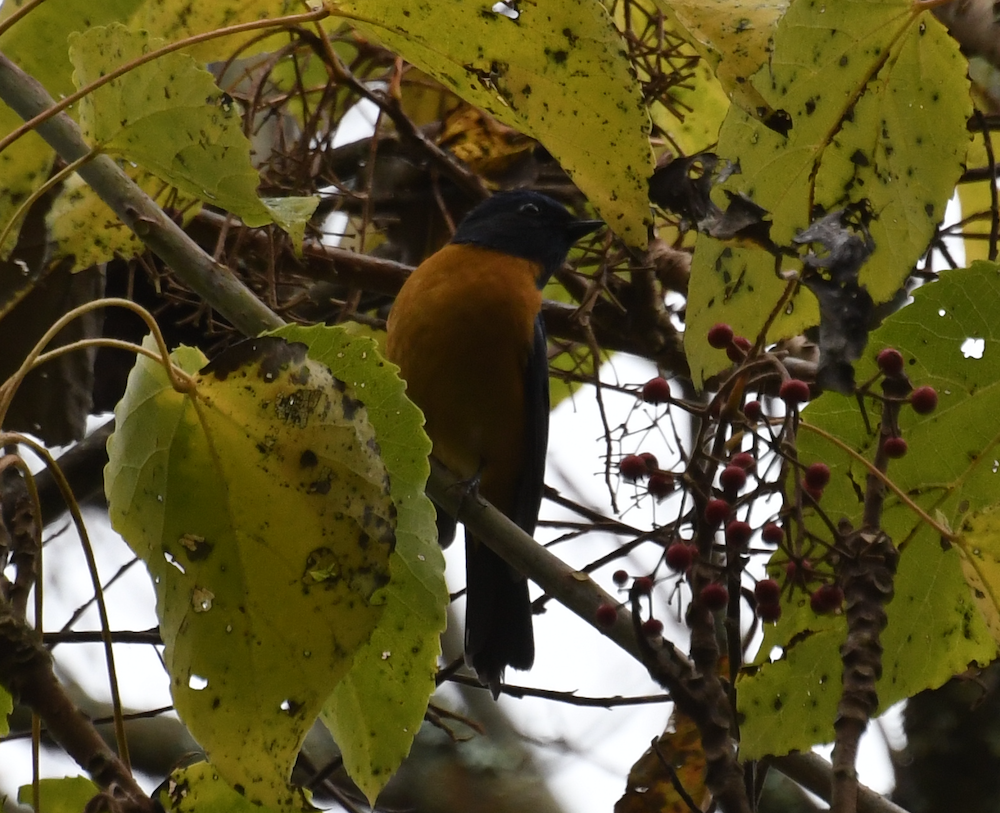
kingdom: Animalia
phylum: Chordata
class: Aves
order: Passeriformes
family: Muscicapidae
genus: Niltava
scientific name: Niltava vivida
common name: Vivid niltava
